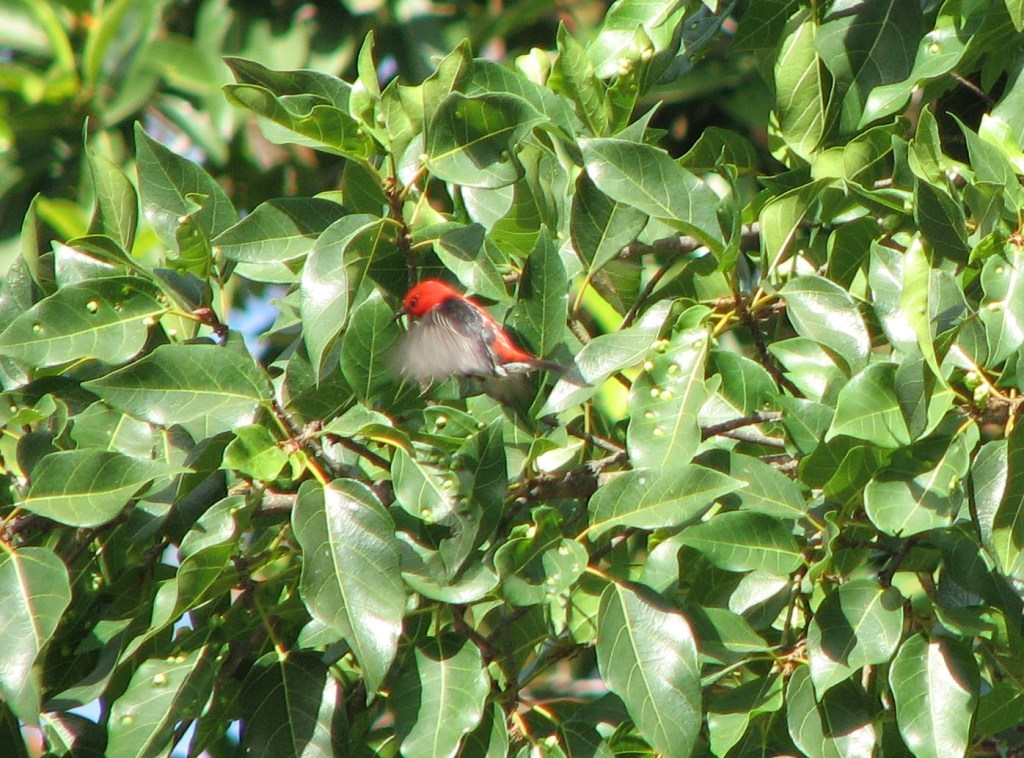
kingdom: Animalia
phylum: Chordata
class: Aves
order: Passeriformes
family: Meliphagidae
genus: Myzomela
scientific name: Myzomela sanguinolenta
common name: Scarlet myzomela
